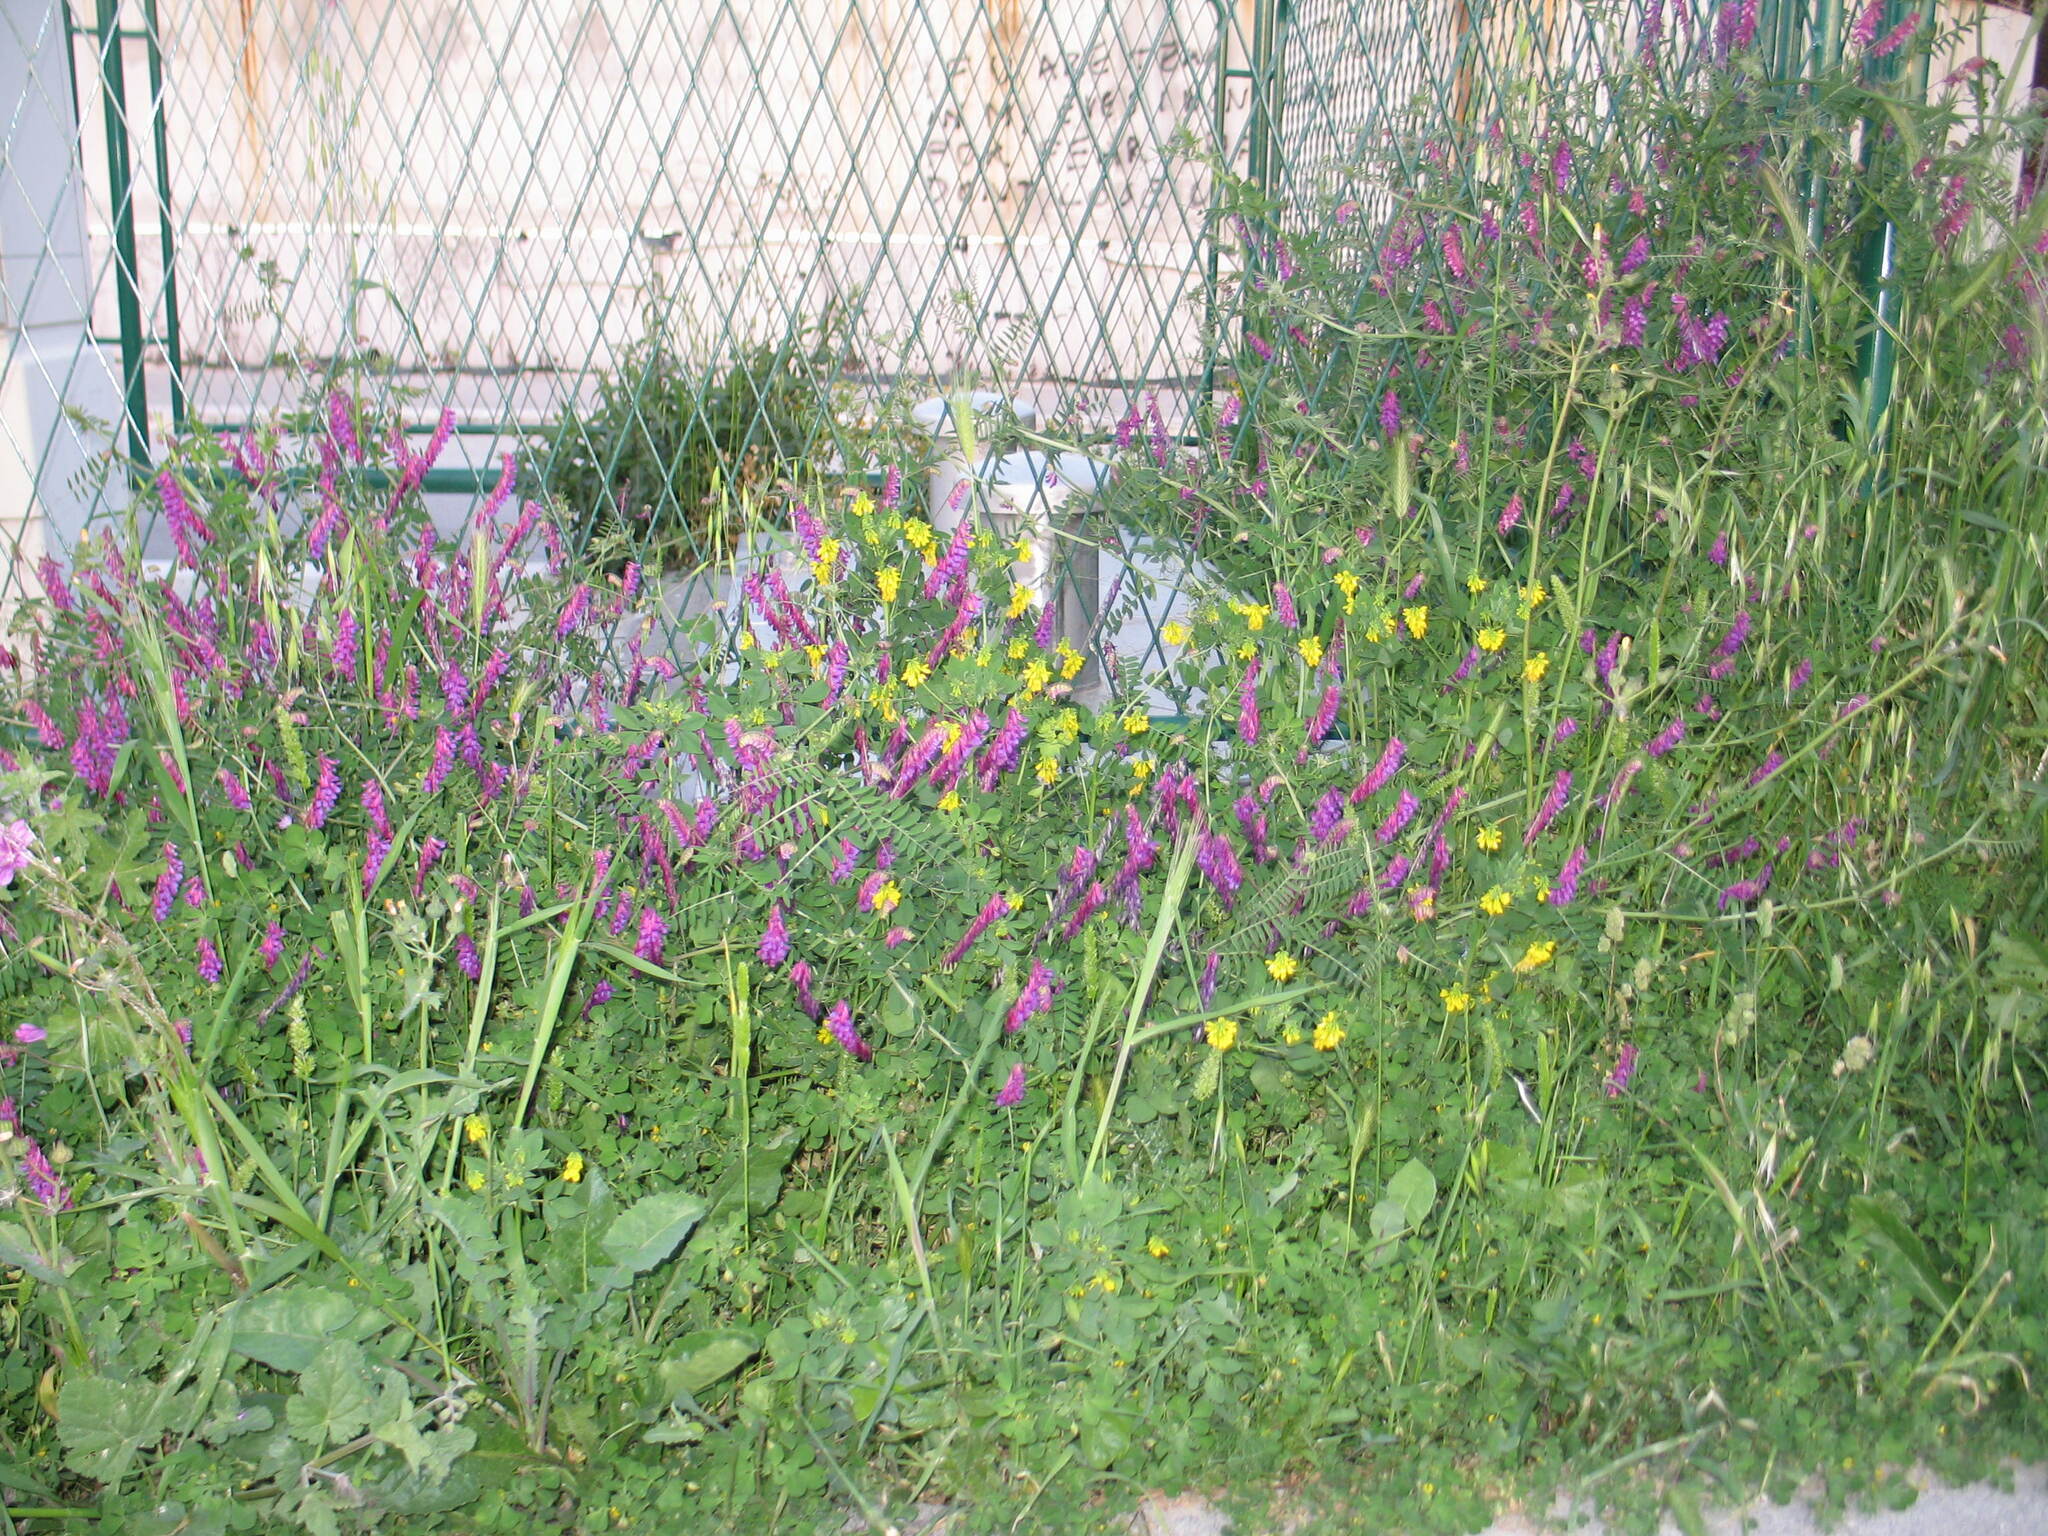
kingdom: Plantae
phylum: Tracheophyta
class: Magnoliopsida
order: Fabales
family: Fabaceae
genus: Vicia
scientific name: Vicia villosa
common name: Fodder vetch
